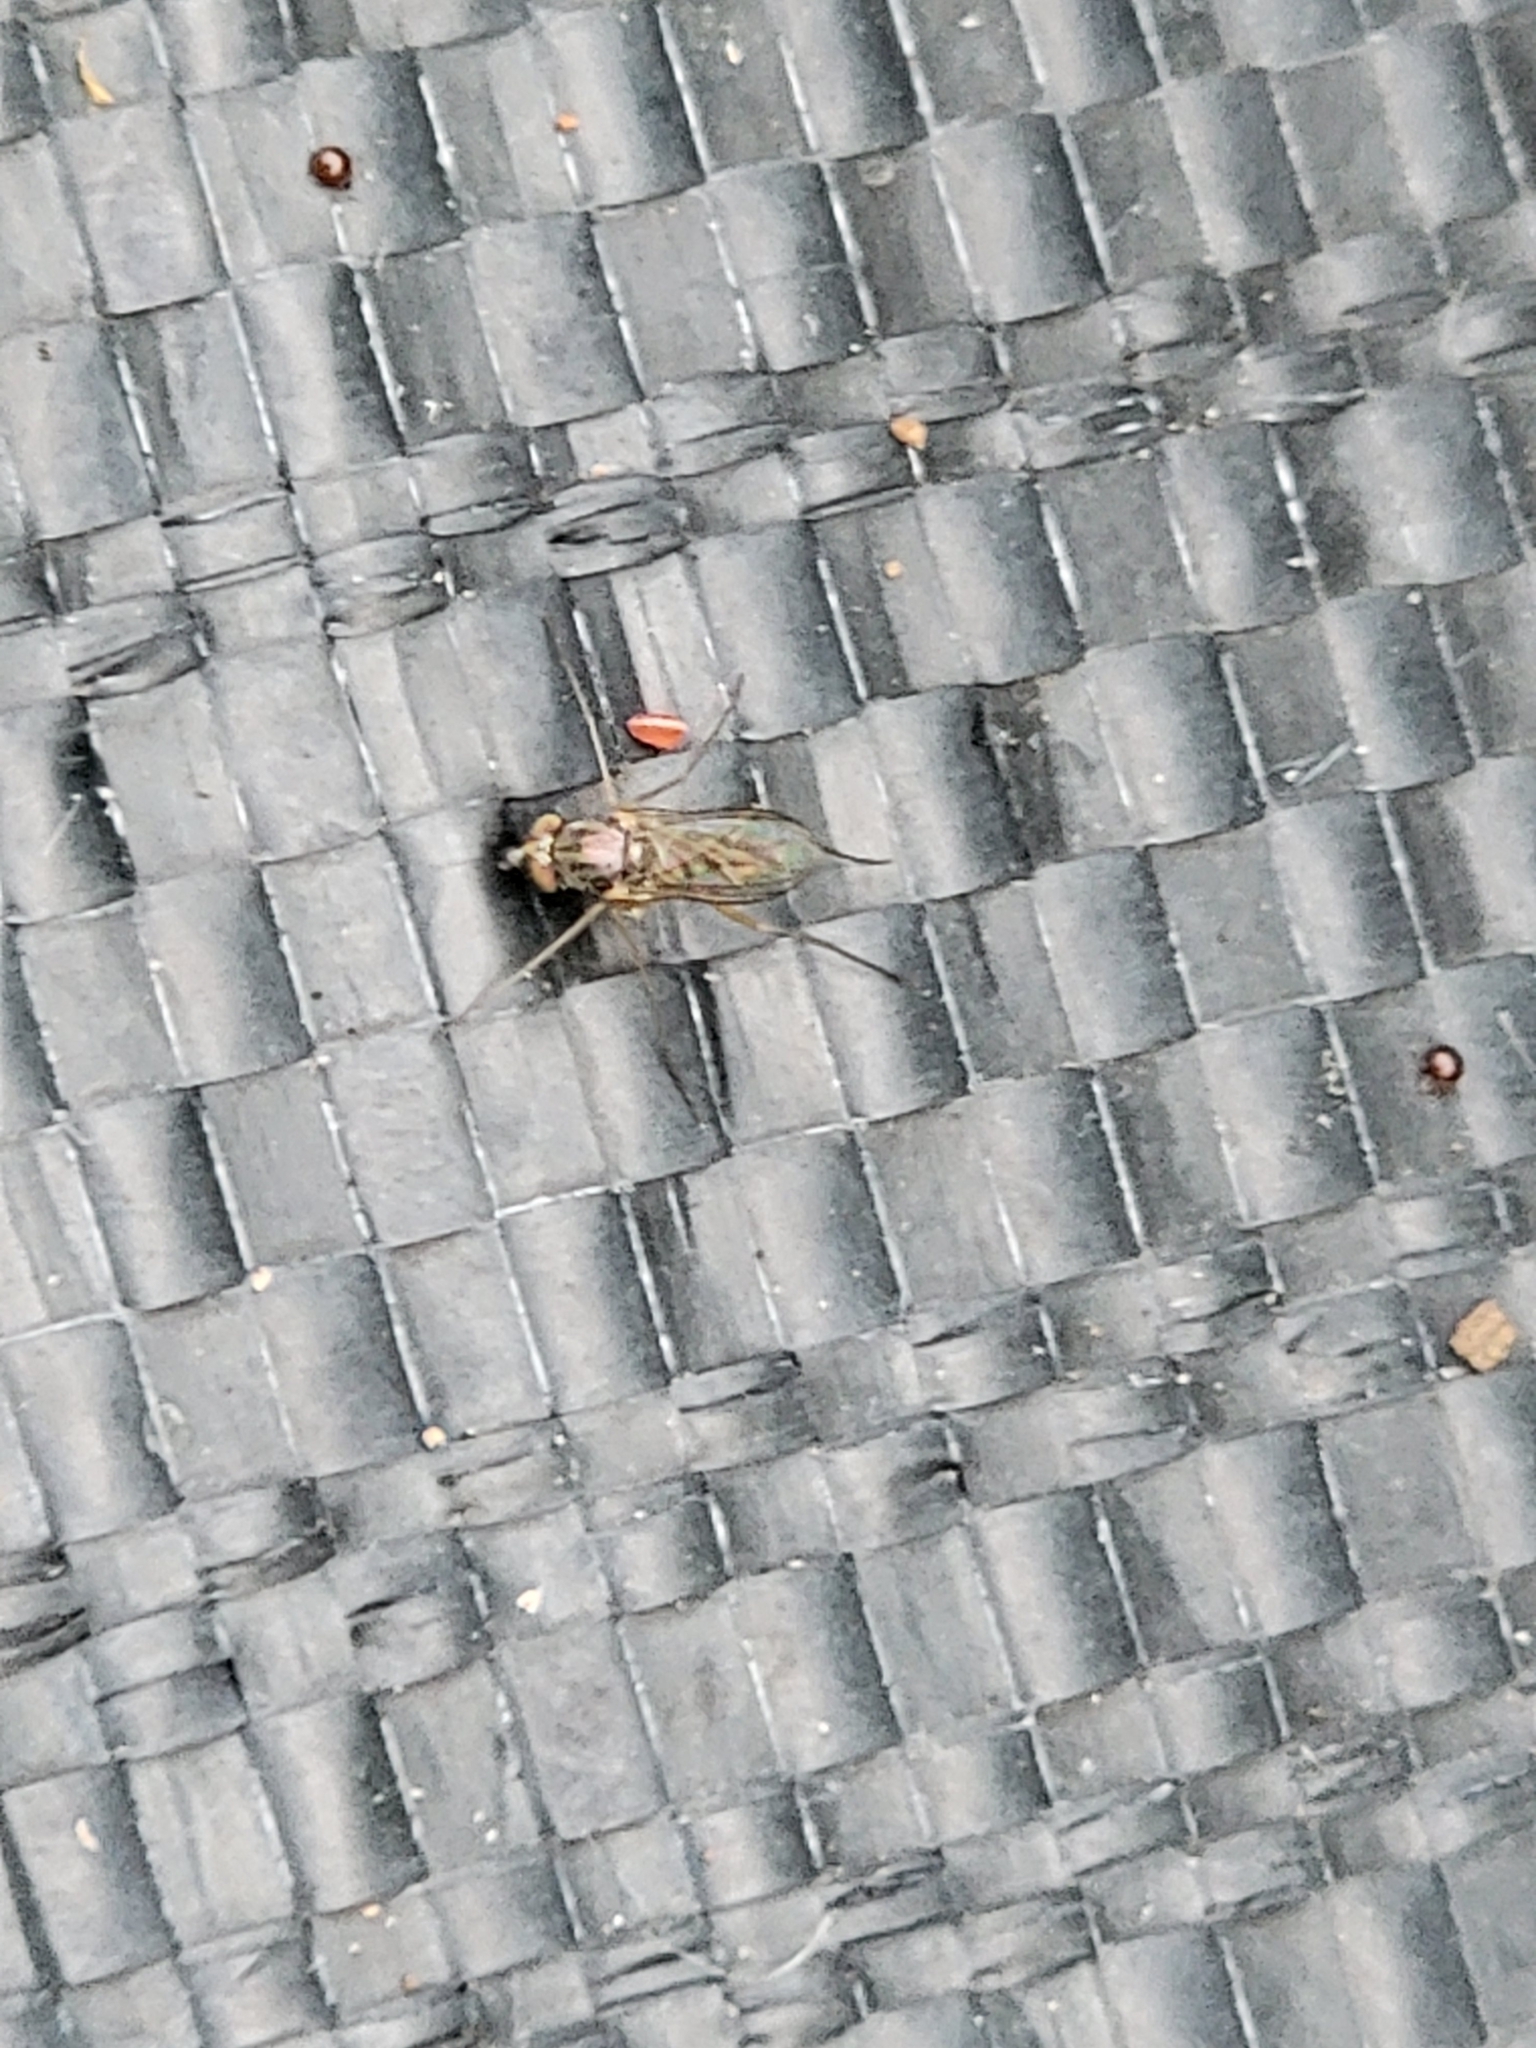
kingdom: Animalia
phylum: Arthropoda
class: Insecta
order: Diptera
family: Dolichopodidae
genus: Dactylomyia
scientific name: Dactylomyia vockerothi
